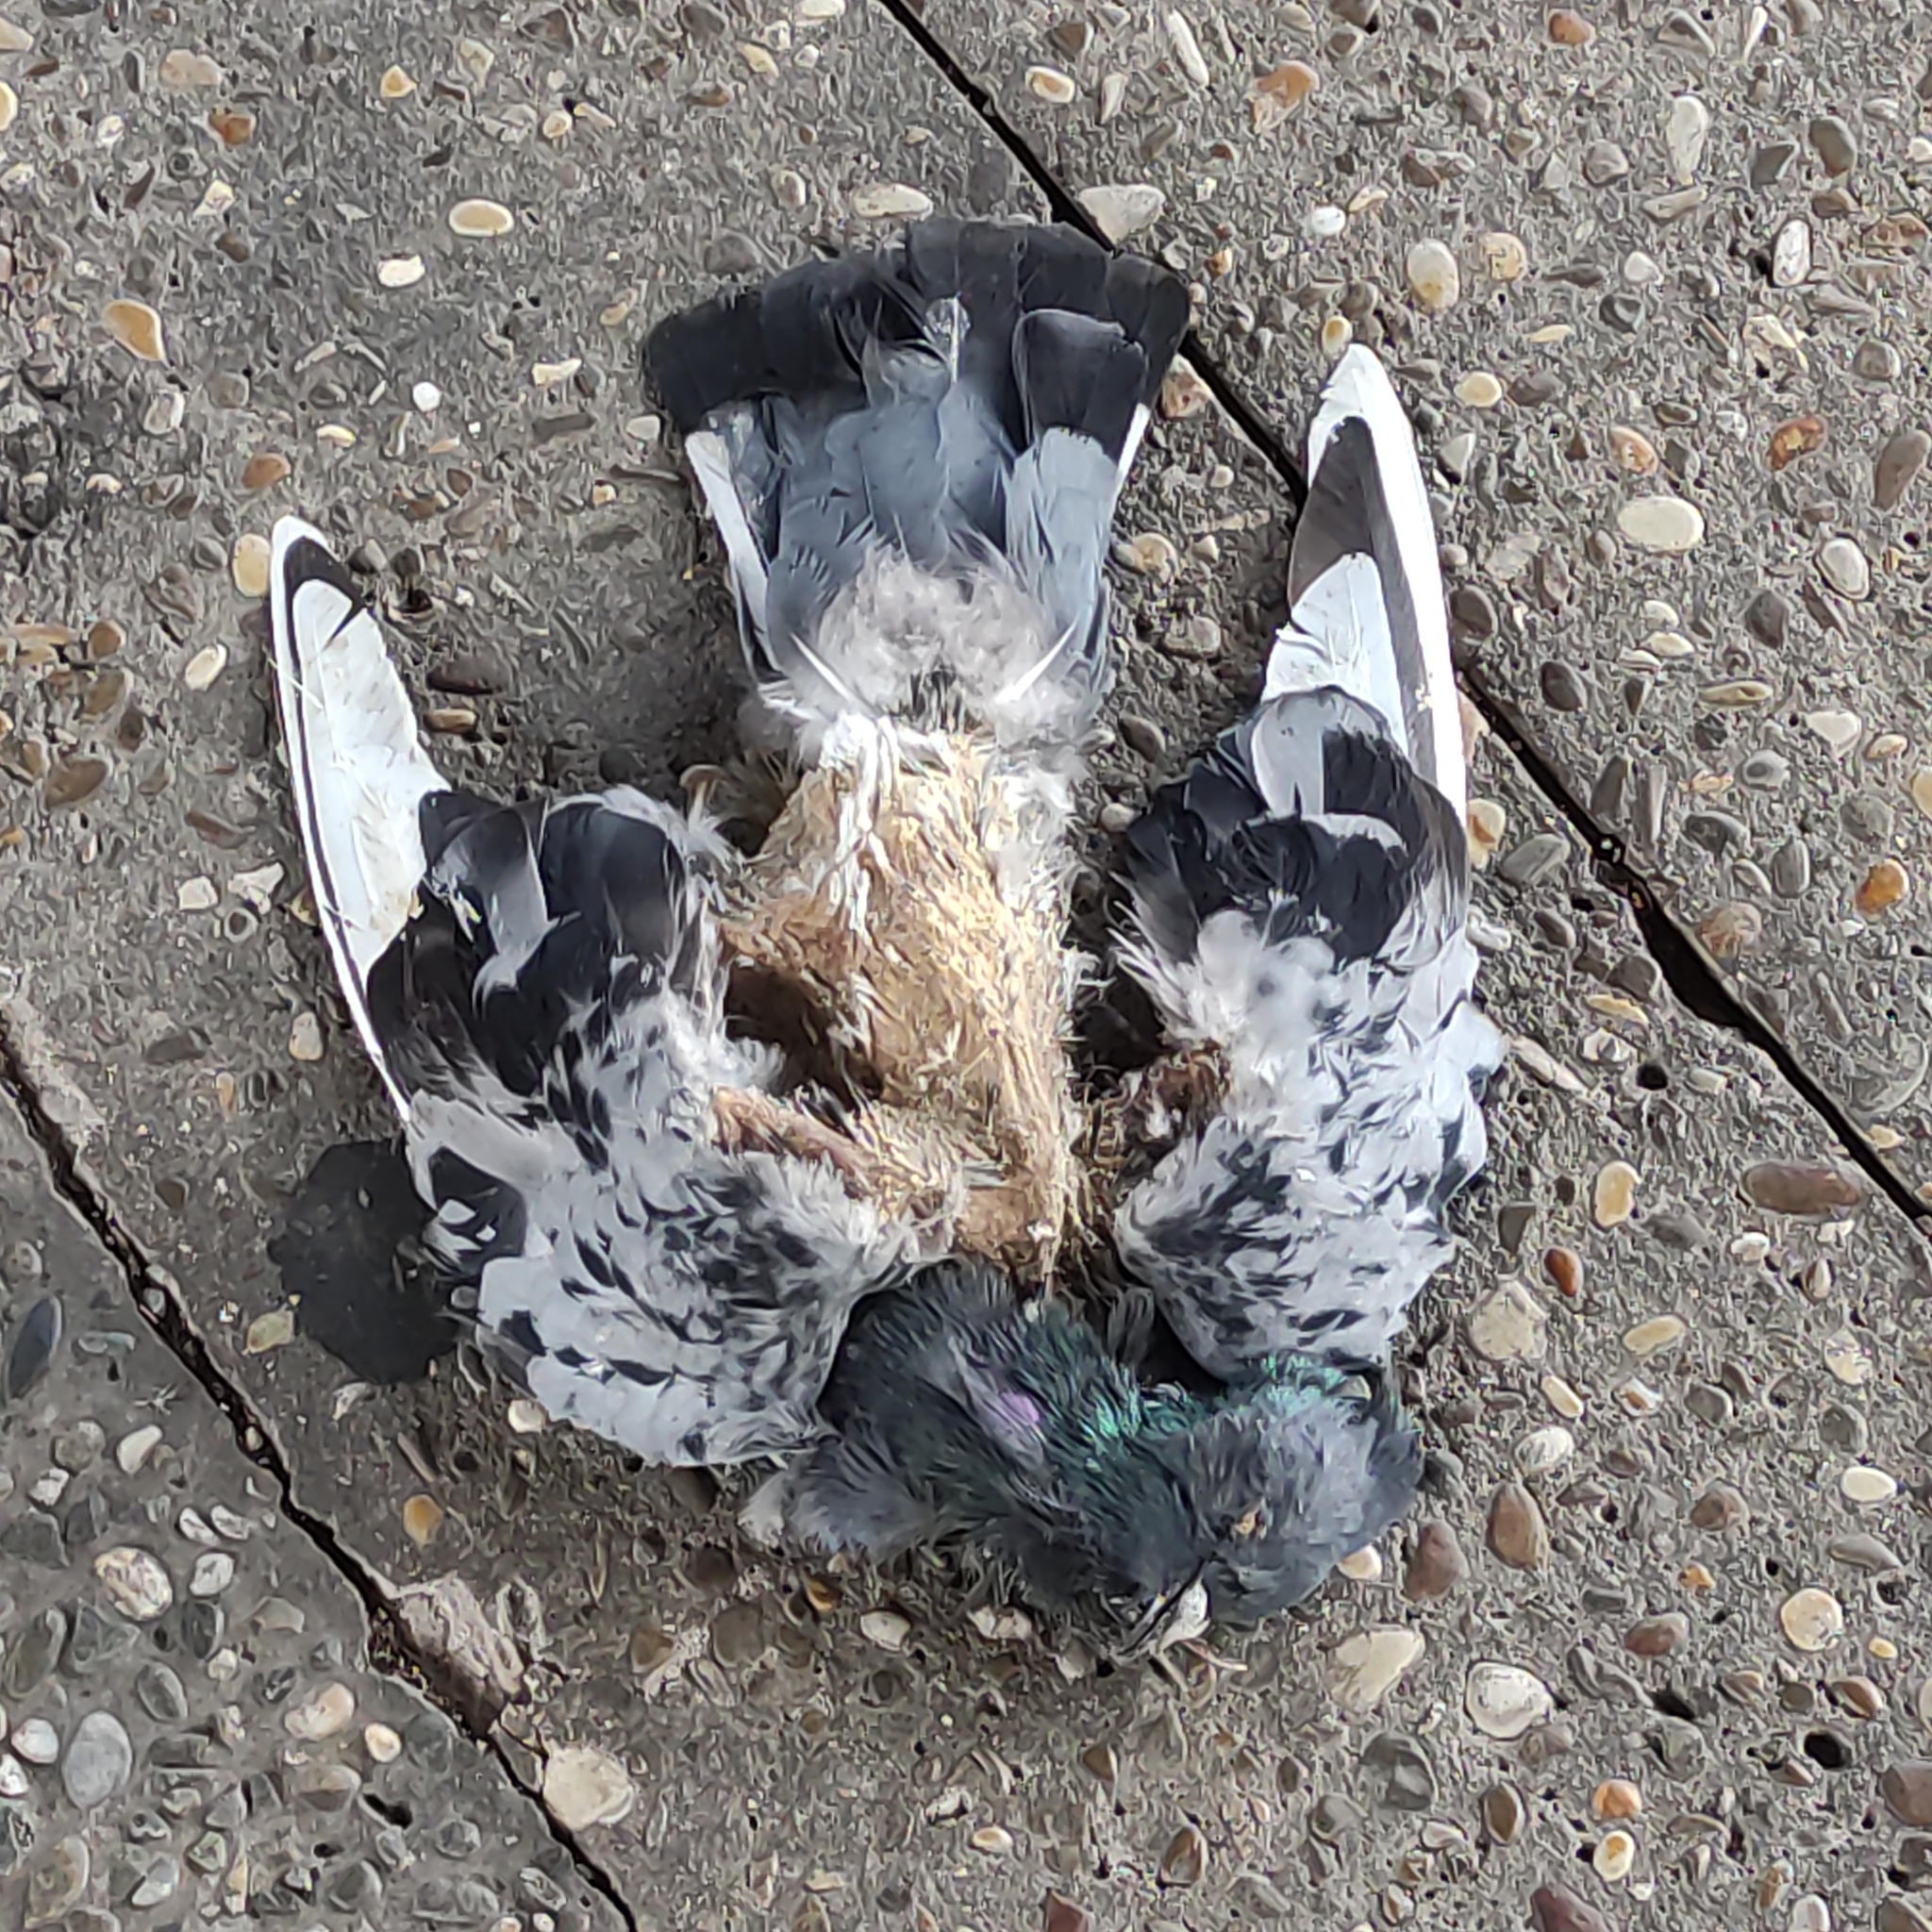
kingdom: Animalia
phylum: Chordata
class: Aves
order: Columbiformes
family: Columbidae
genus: Columba
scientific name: Columba livia
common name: Rock pigeon
